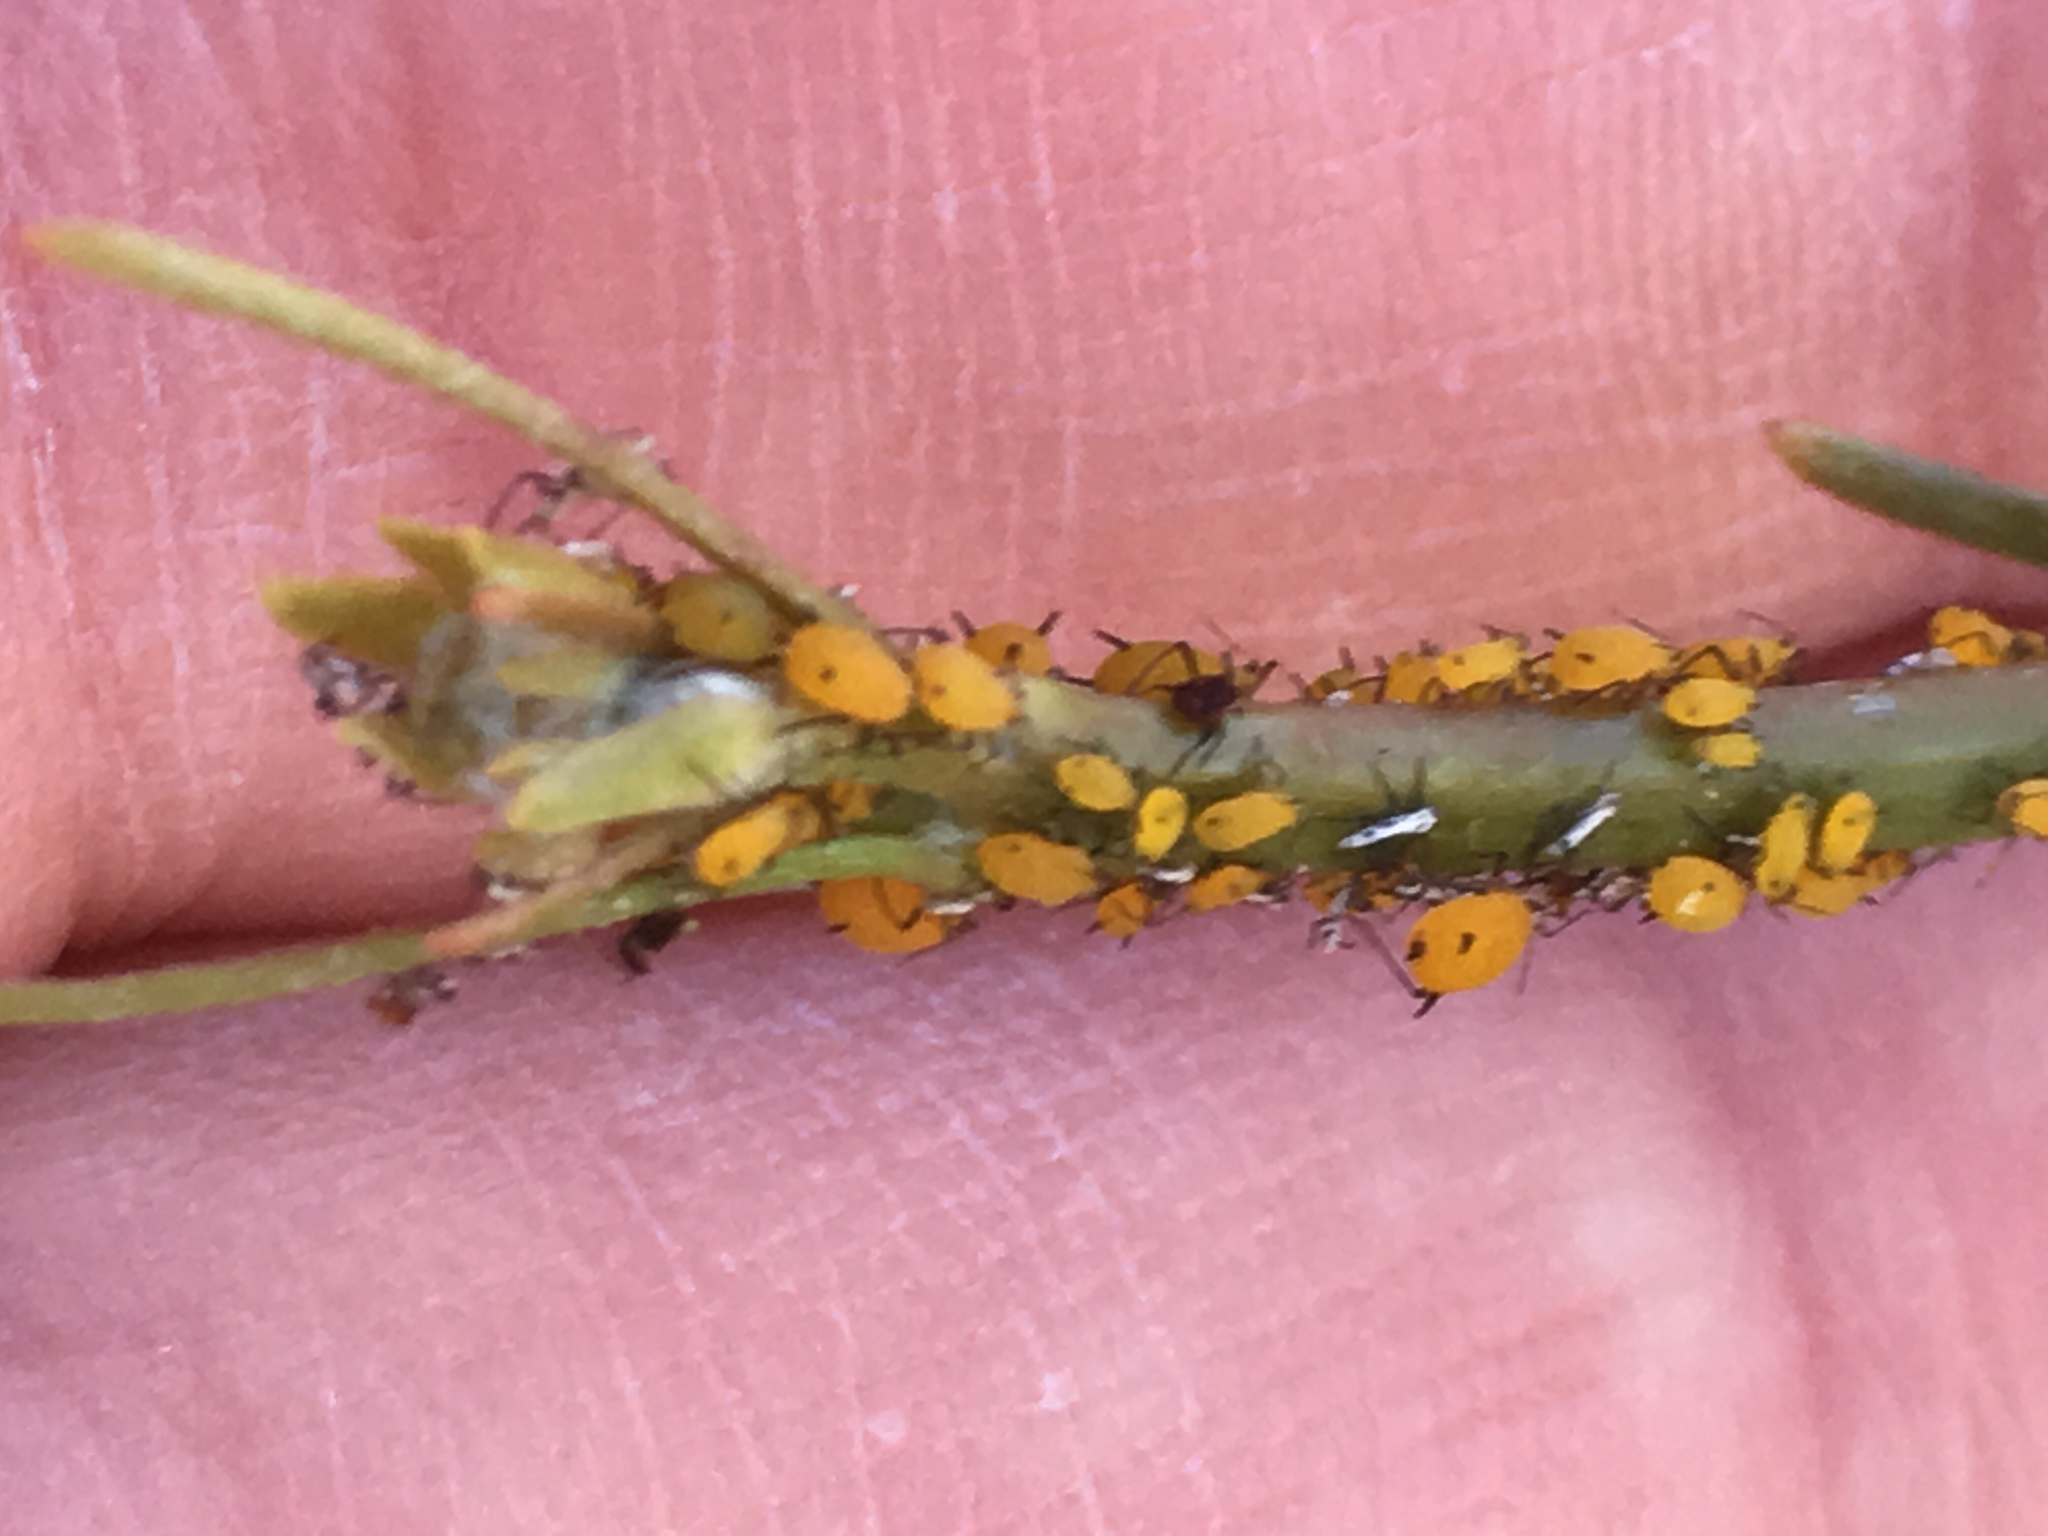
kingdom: Animalia
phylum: Arthropoda
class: Insecta
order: Hemiptera
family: Aphididae
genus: Aphis
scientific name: Aphis nerii
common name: Oleander aphid
